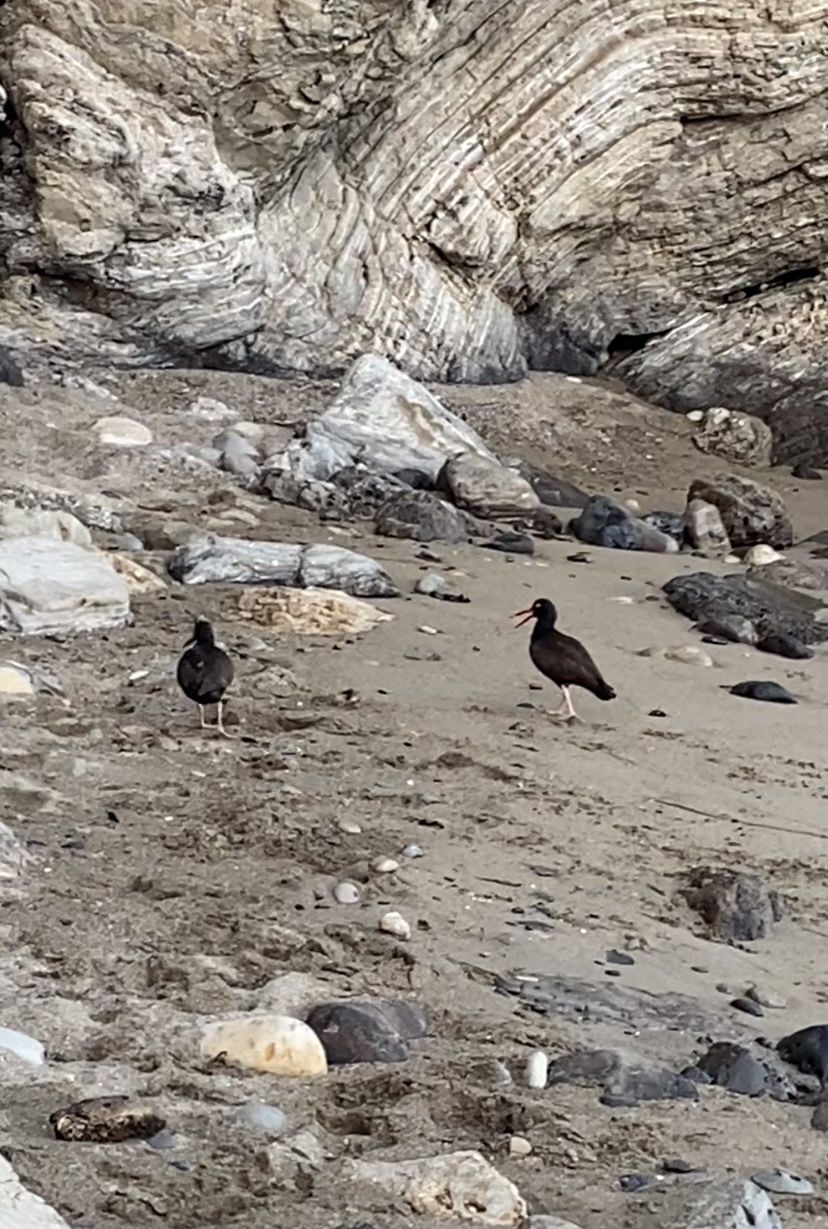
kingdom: Animalia
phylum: Chordata
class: Aves
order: Charadriiformes
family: Haematopodidae
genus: Haematopus
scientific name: Haematopus bachmani
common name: Black oystercatcher
